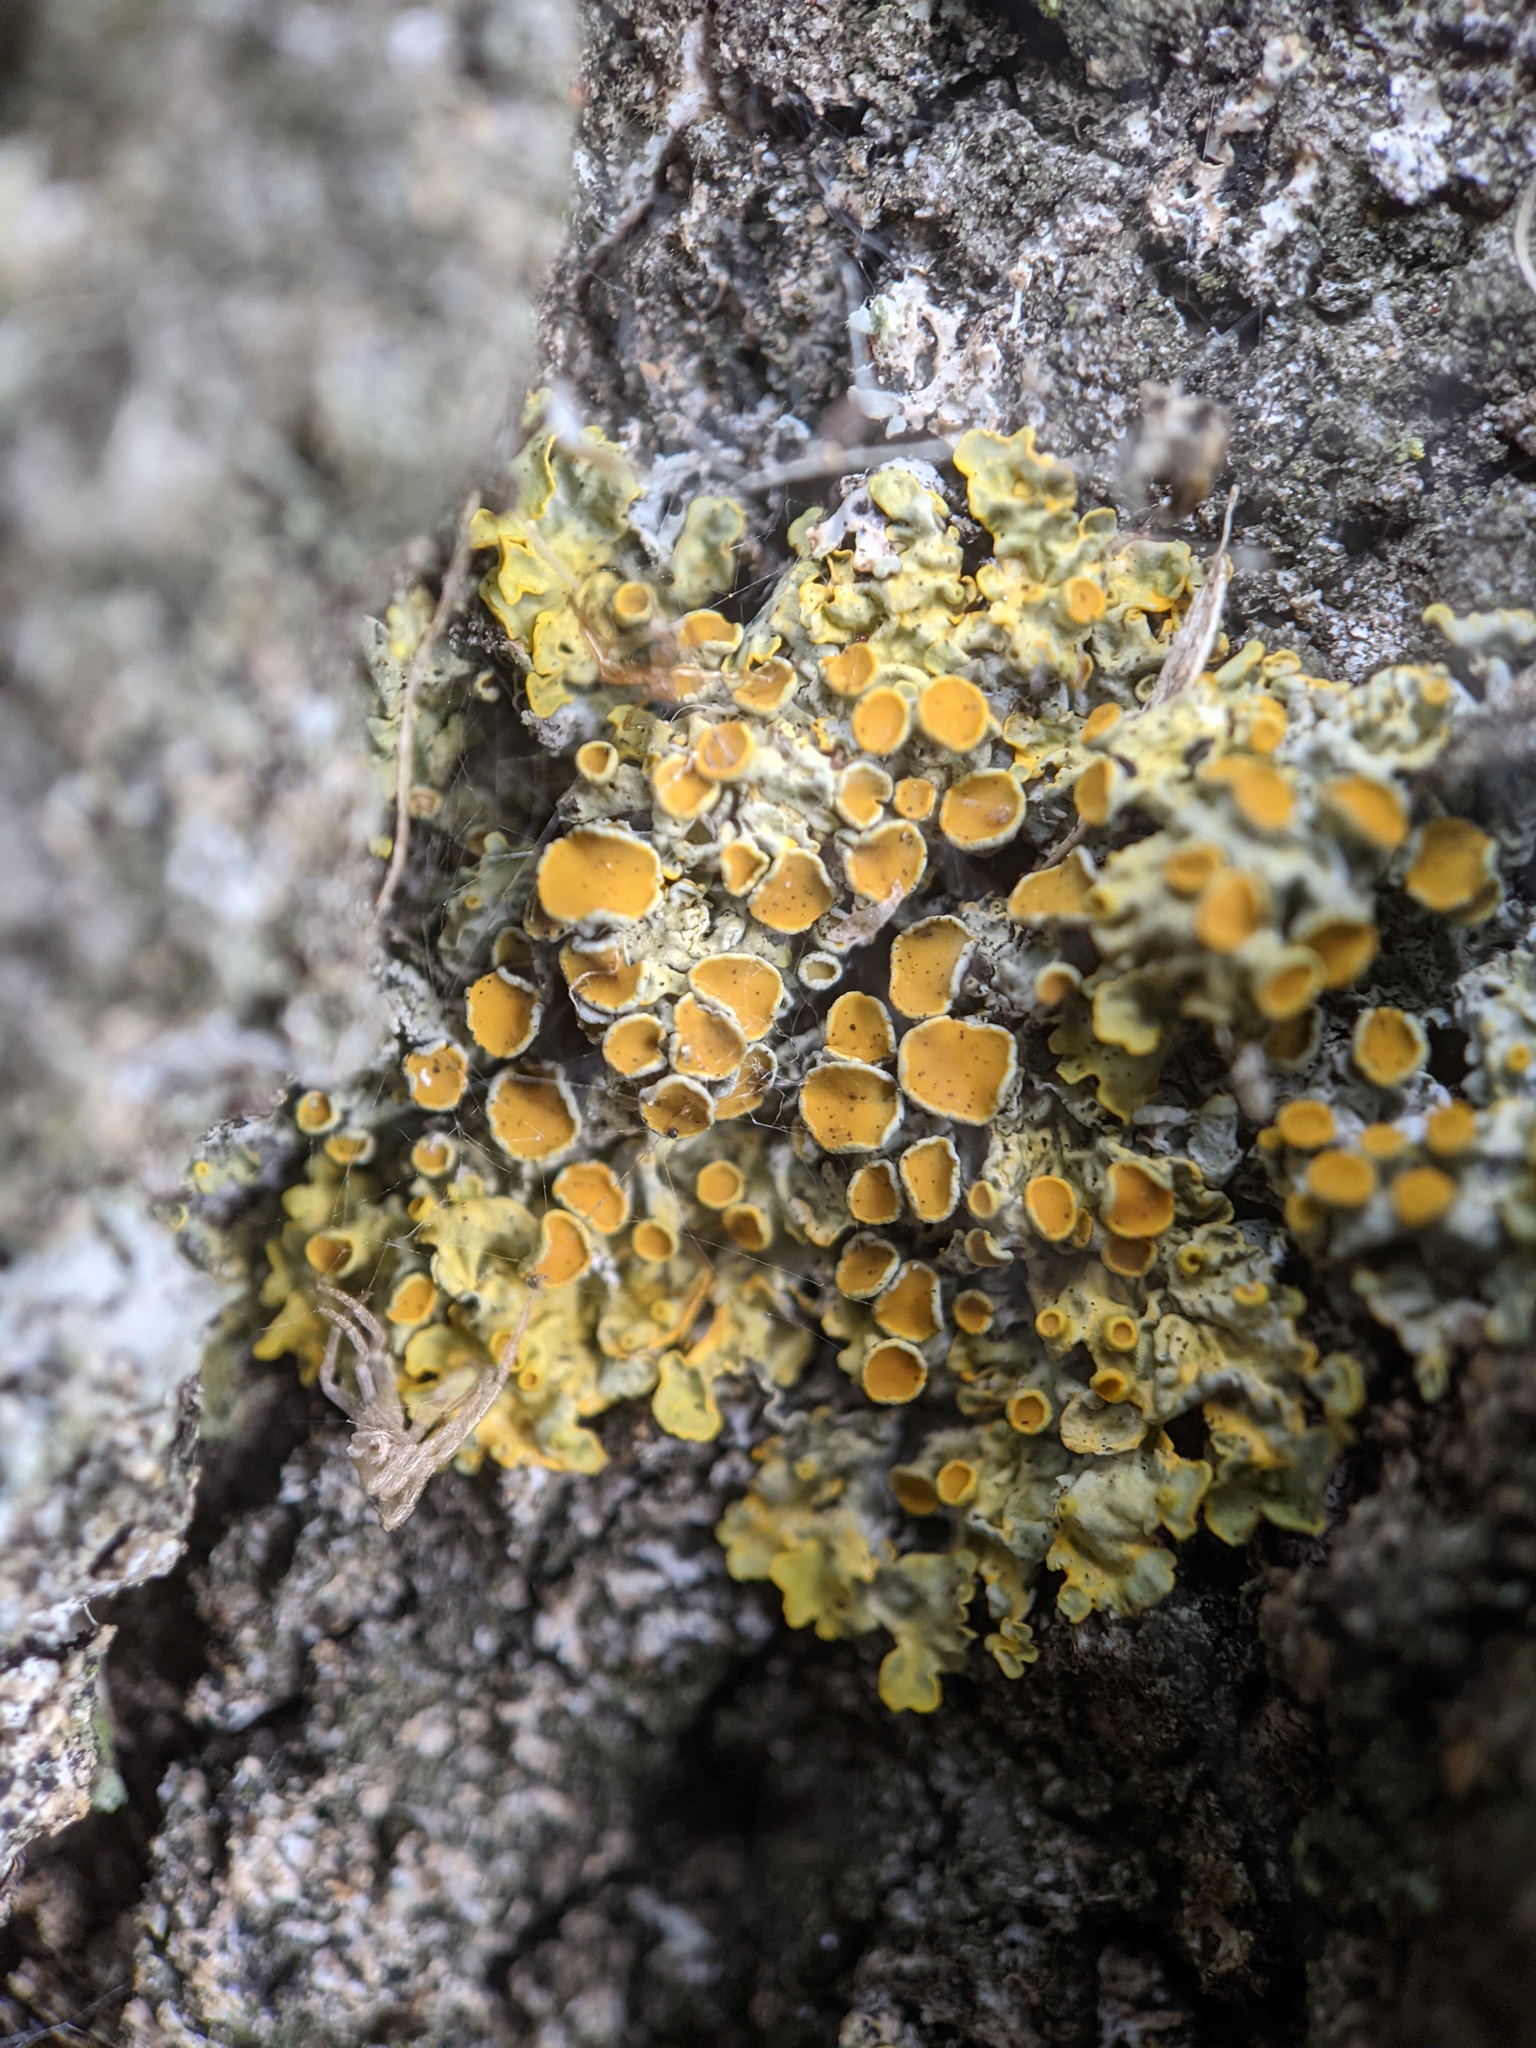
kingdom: Fungi
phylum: Ascomycota
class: Lecanoromycetes
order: Teloschistales
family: Teloschistaceae
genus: Xanthoria
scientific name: Xanthoria parietina
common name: Common orange lichen
